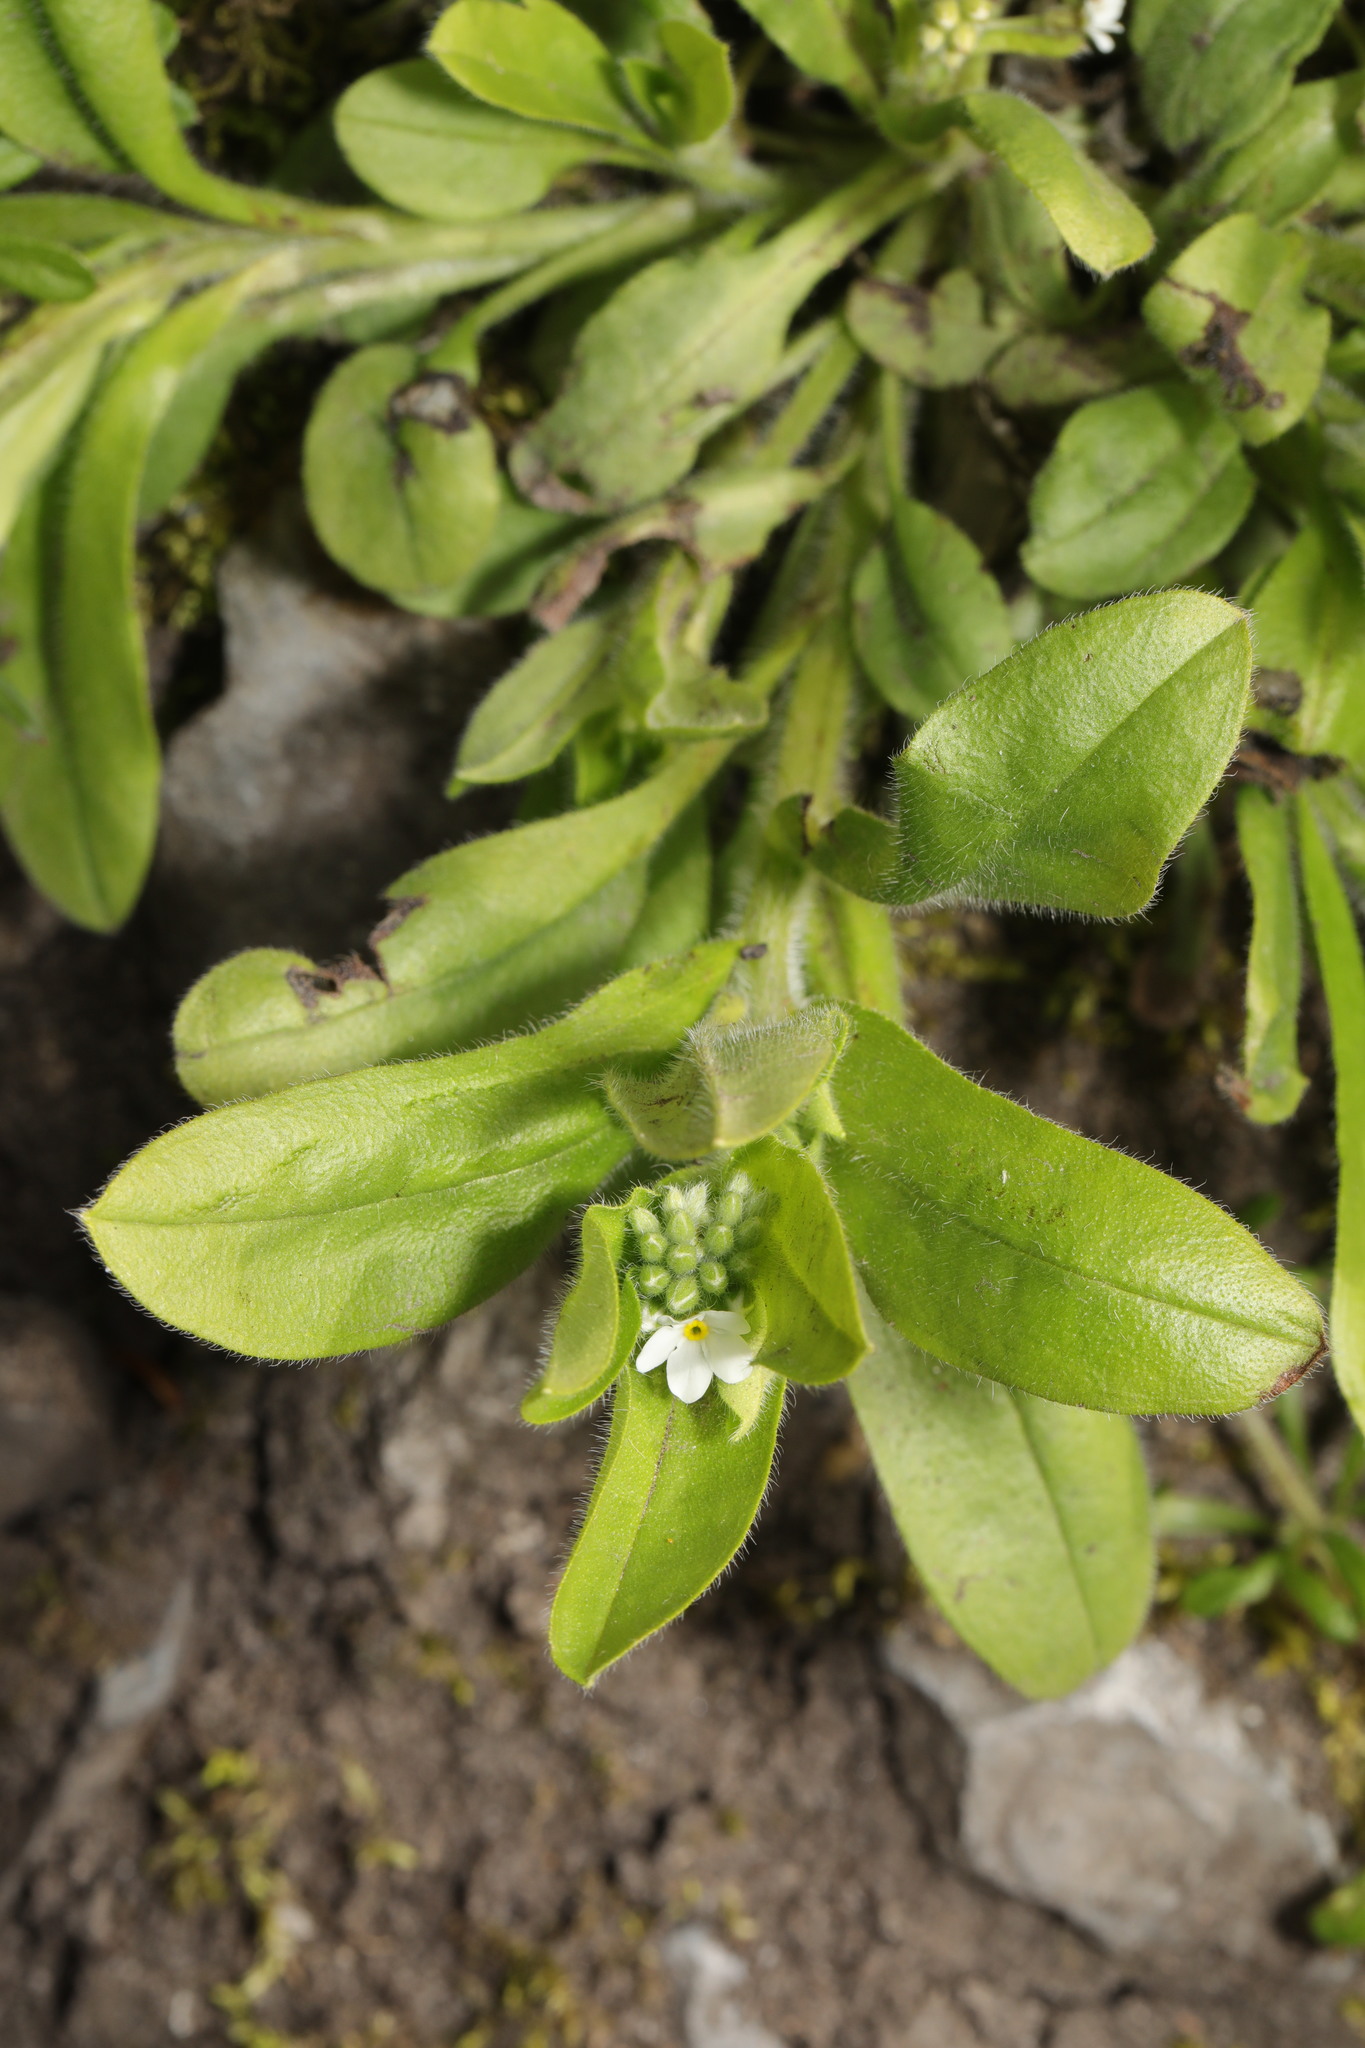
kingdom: Plantae
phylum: Tracheophyta
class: Magnoliopsida
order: Boraginales
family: Boraginaceae
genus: Myosotis
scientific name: Myosotis sylvatica
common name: Wood forget-me-not
